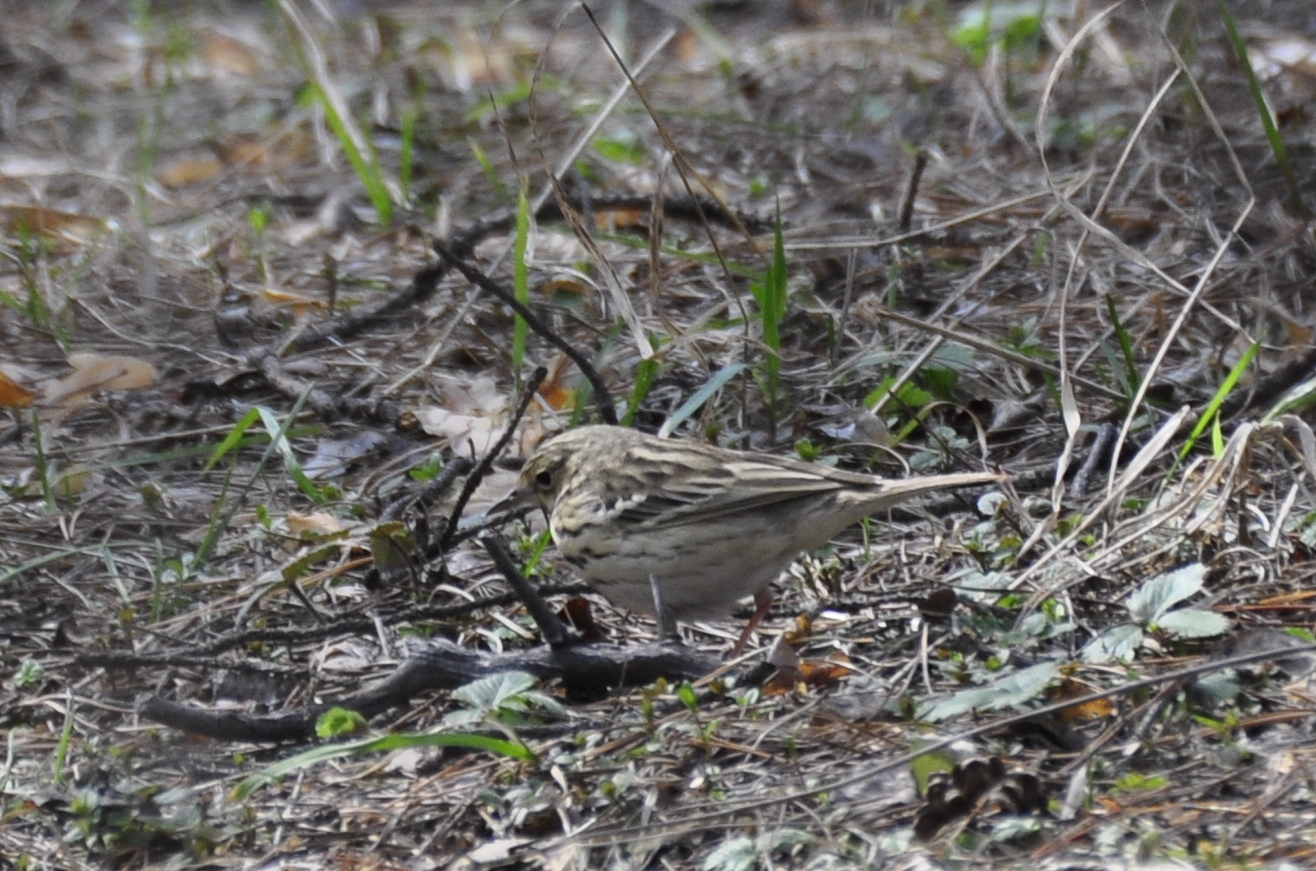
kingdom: Animalia
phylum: Chordata
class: Aves
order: Passeriformes
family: Motacillidae
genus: Anthus
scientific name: Anthus trivialis
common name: Tree pipit
